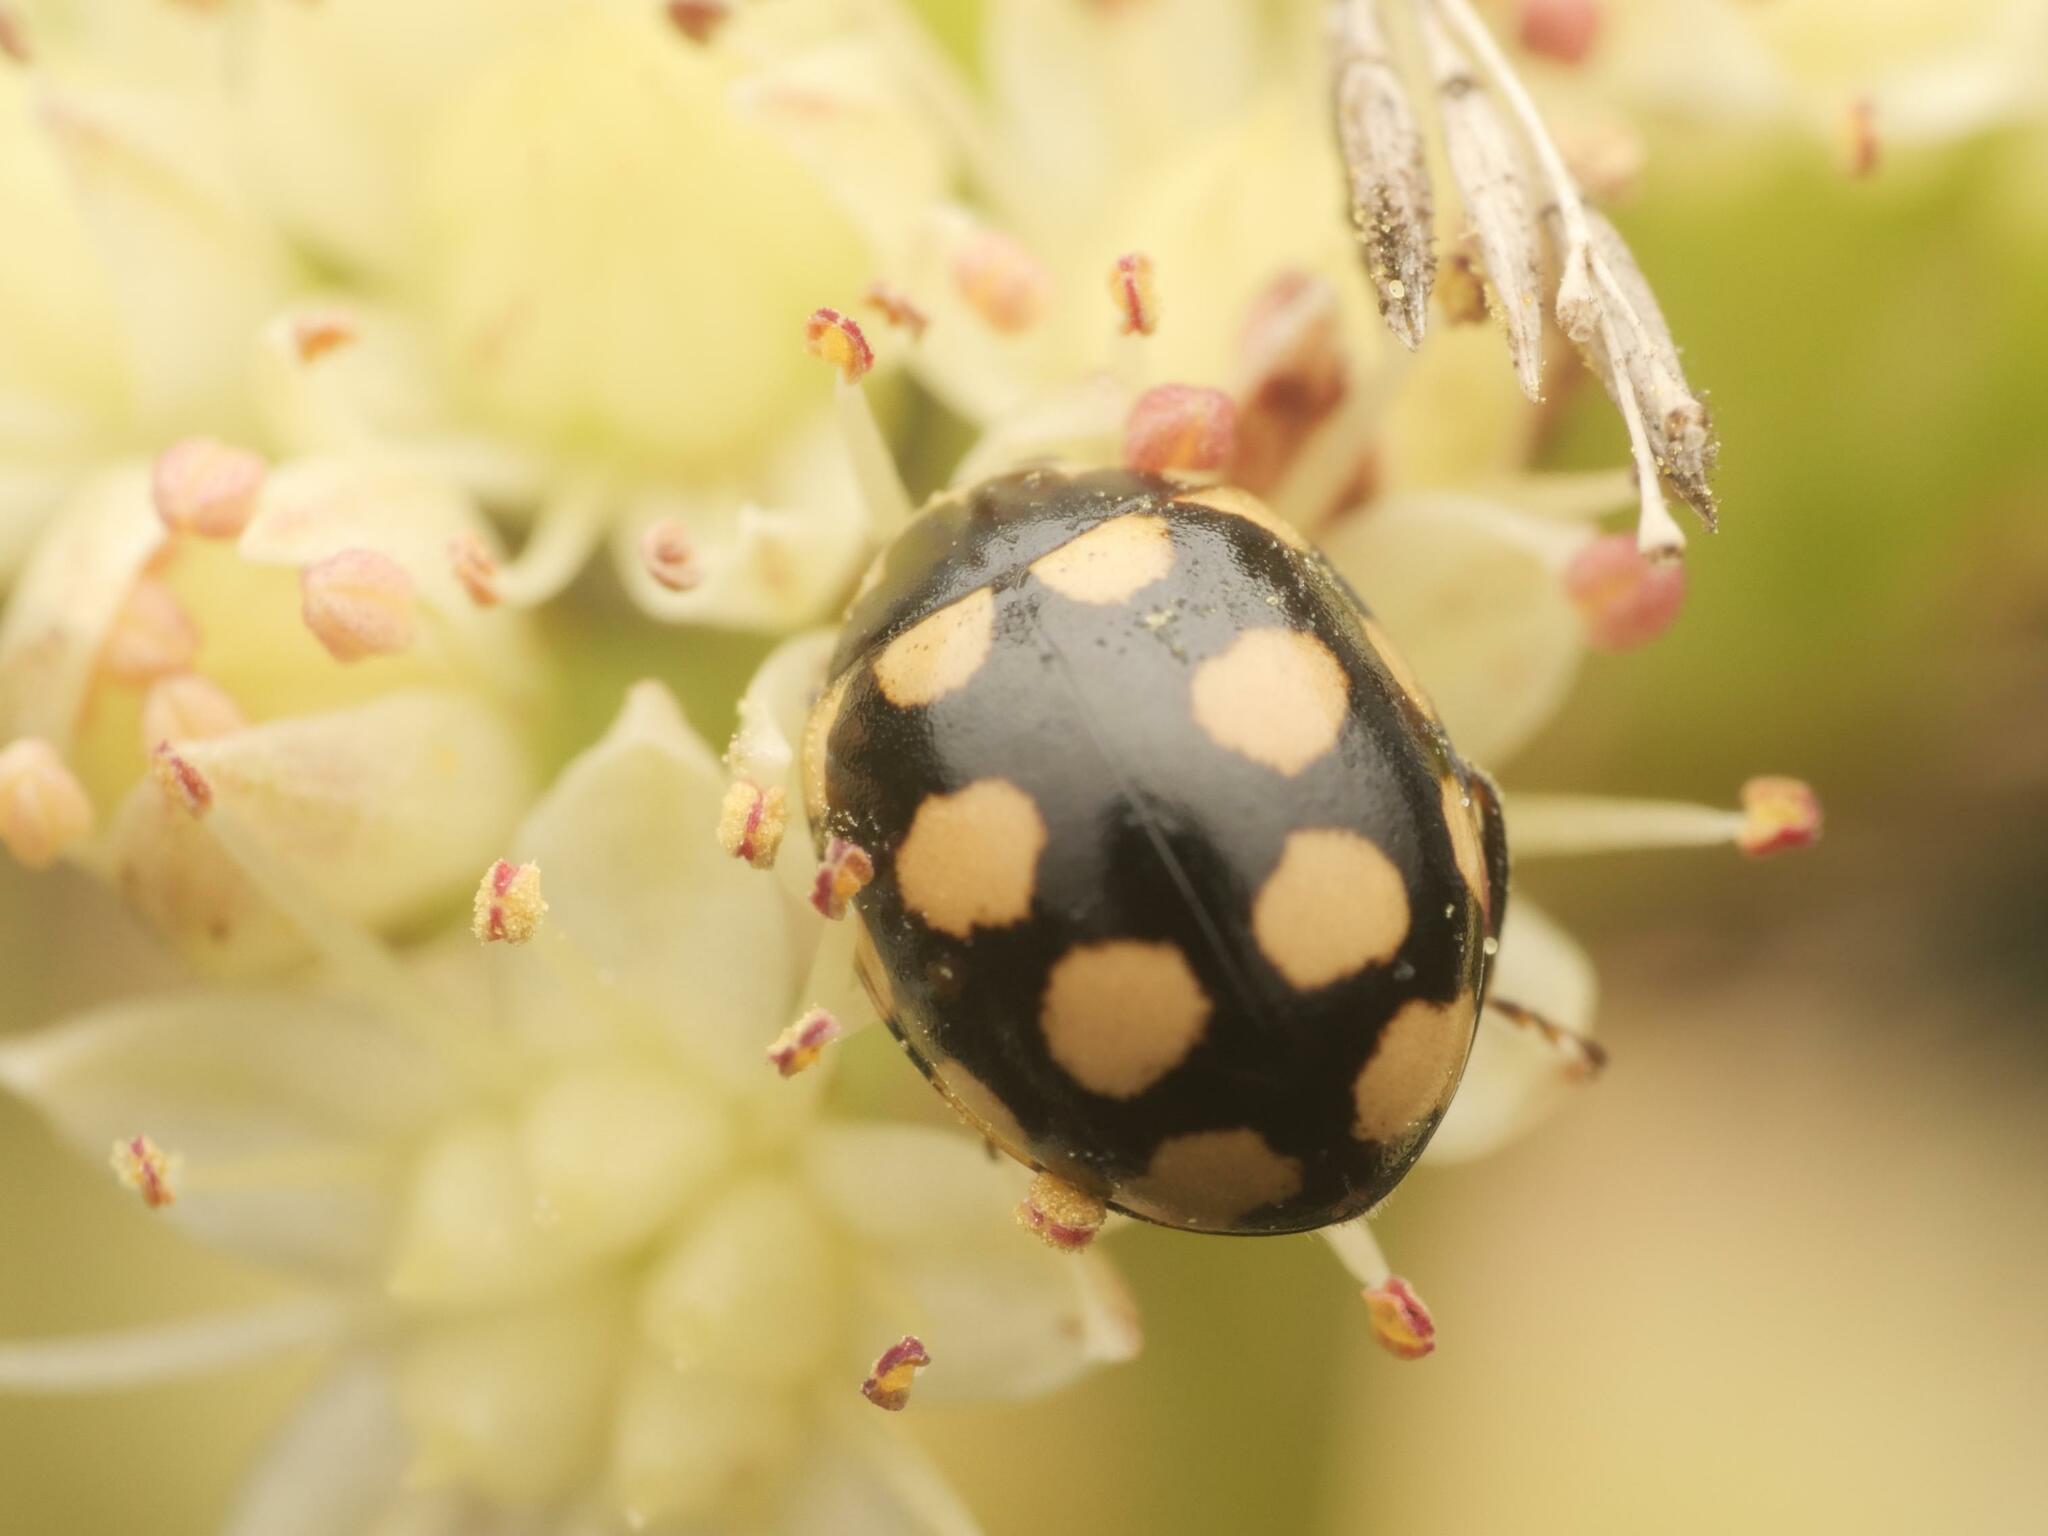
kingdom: Animalia
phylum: Arthropoda
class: Insecta
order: Coleoptera
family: Coccinellidae
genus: Coccinula
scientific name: Coccinula quatuordecimpustulata
